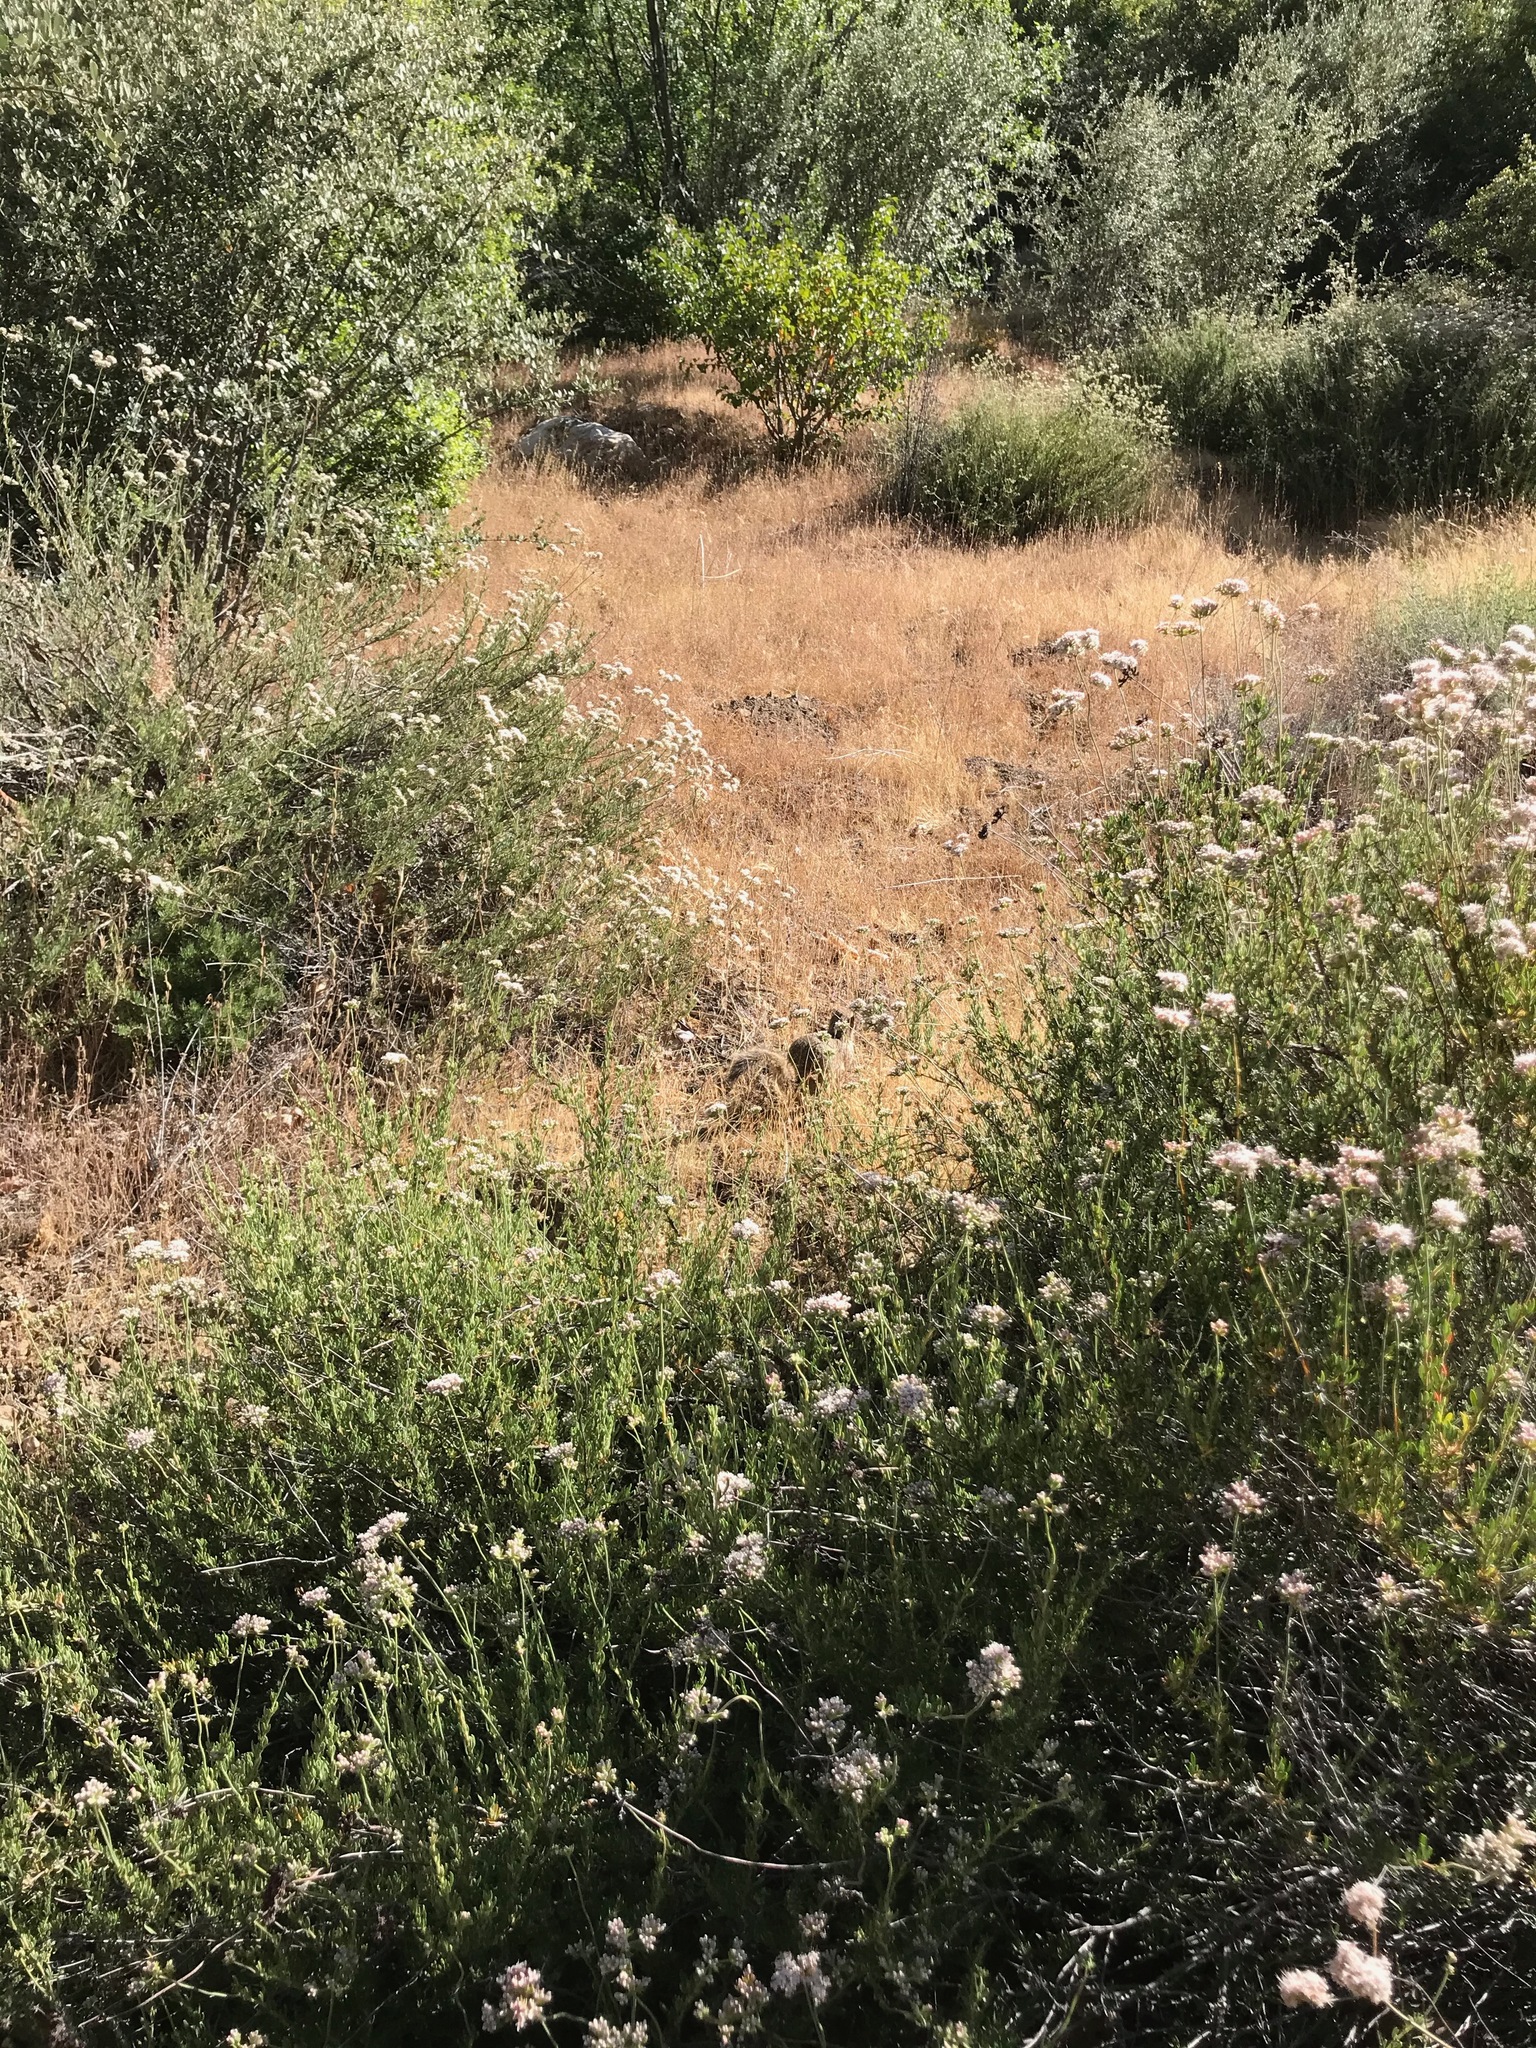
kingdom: Plantae
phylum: Tracheophyta
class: Magnoliopsida
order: Caryophyllales
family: Polygonaceae
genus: Eriogonum
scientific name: Eriogonum fasciculatum
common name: California wild buckwheat
